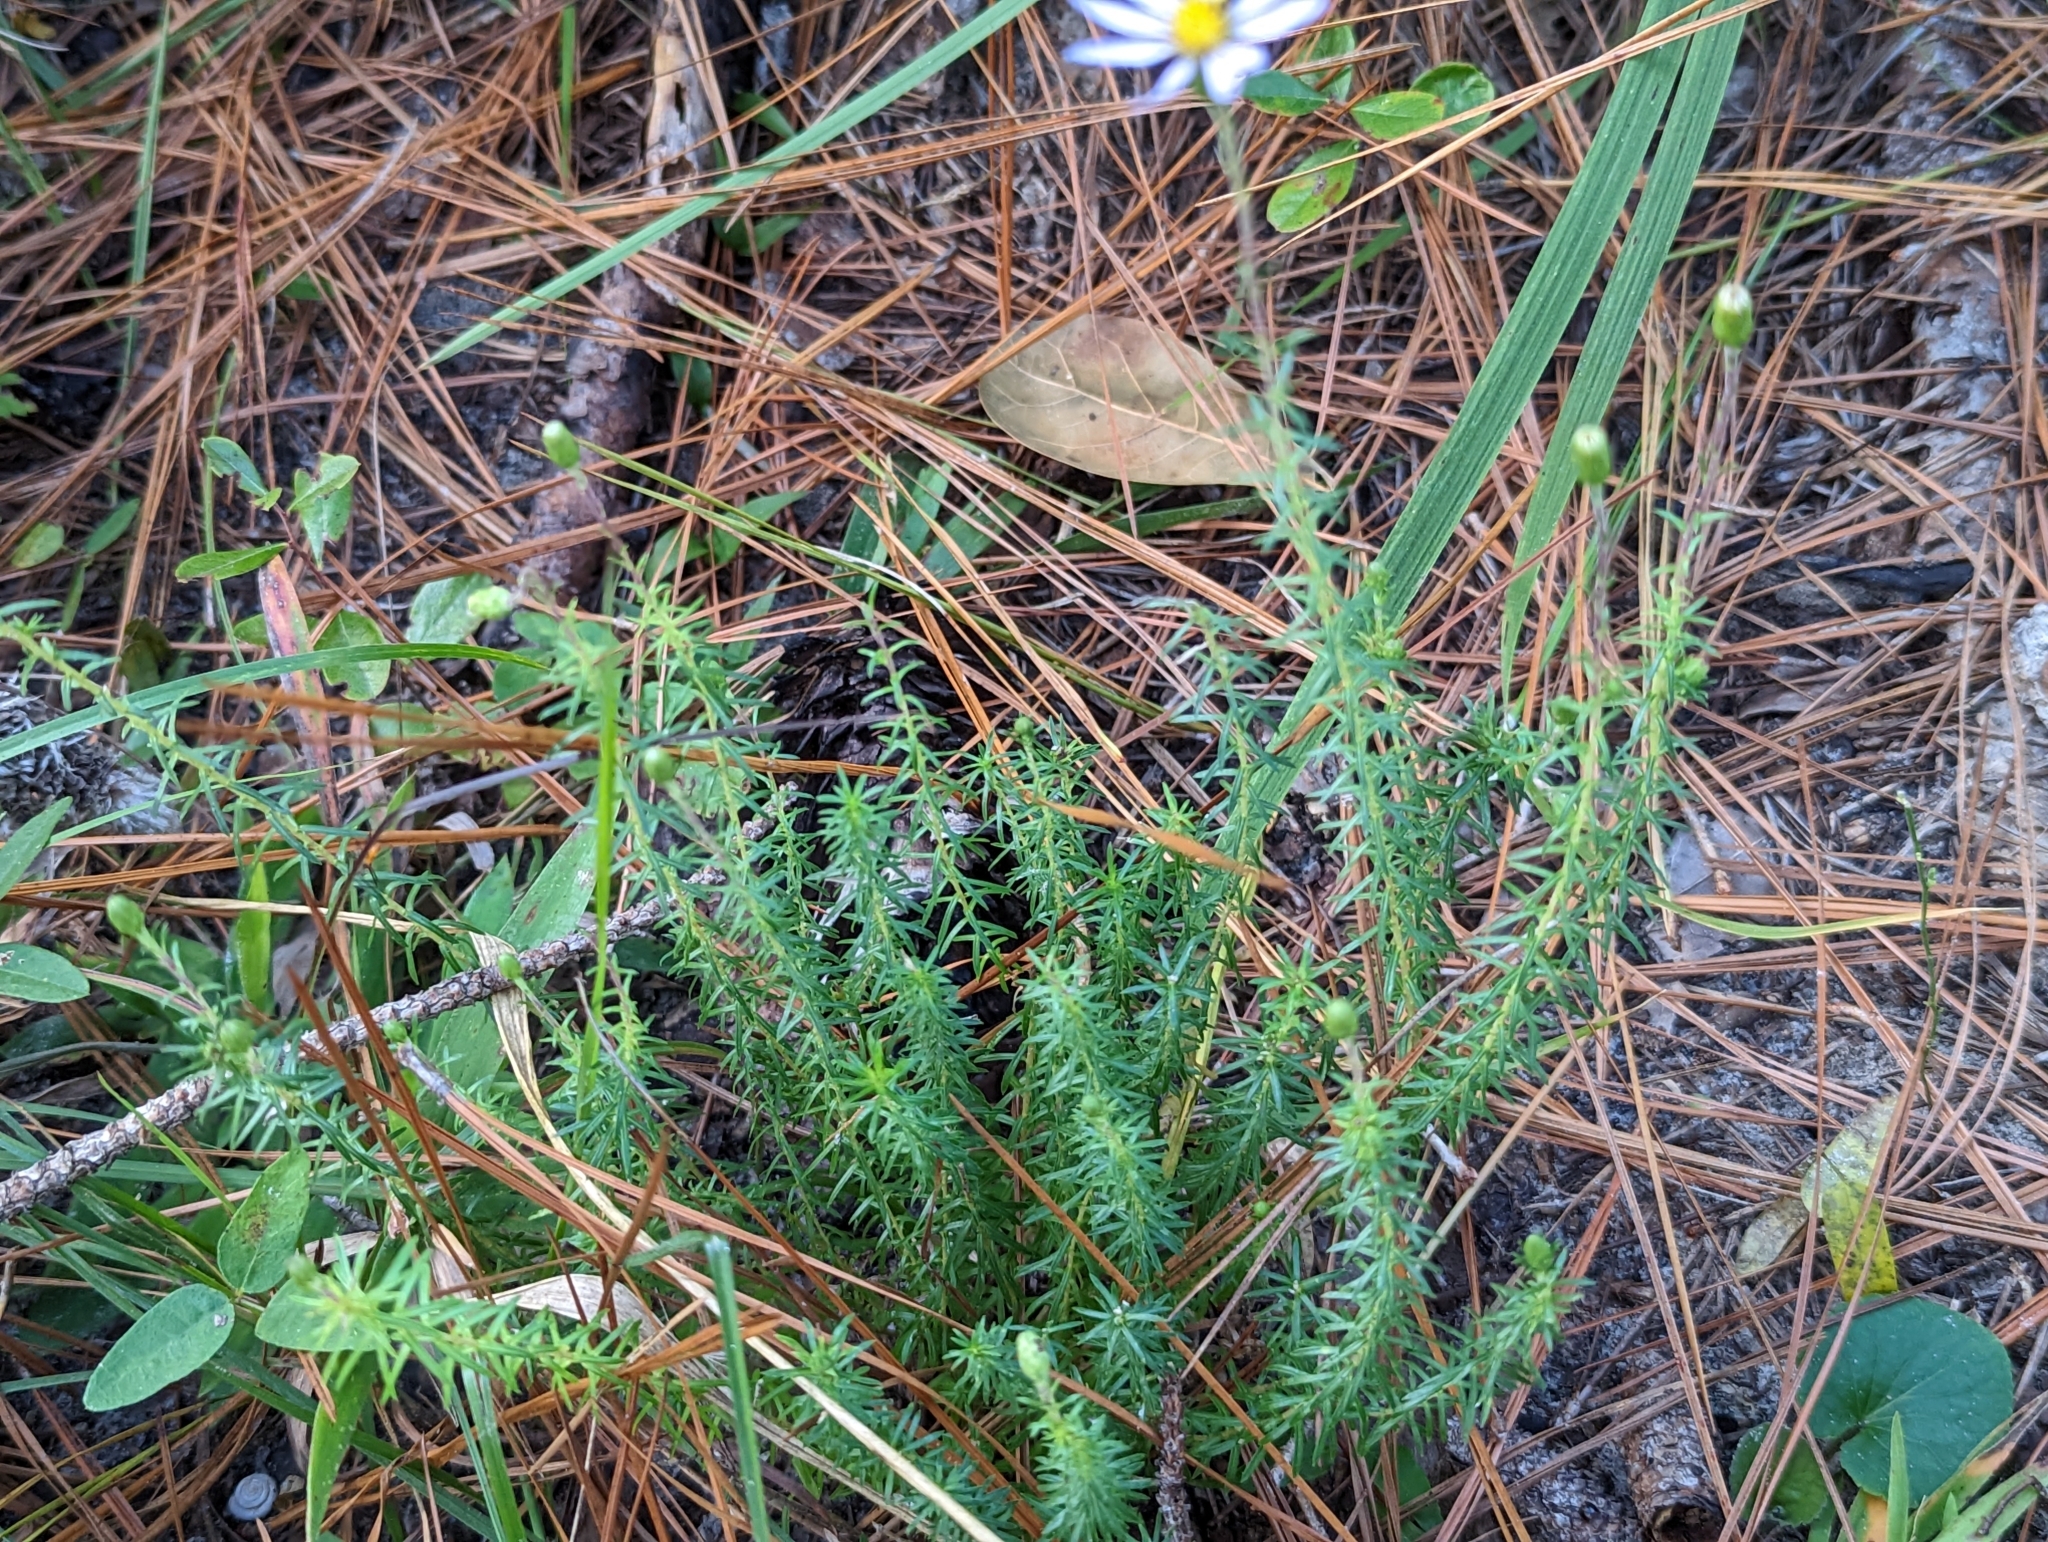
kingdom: Plantae
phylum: Tracheophyta
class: Magnoliopsida
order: Asterales
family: Asteraceae
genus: Ionactis
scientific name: Ionactis linariifolia
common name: Flax-leaf aster
